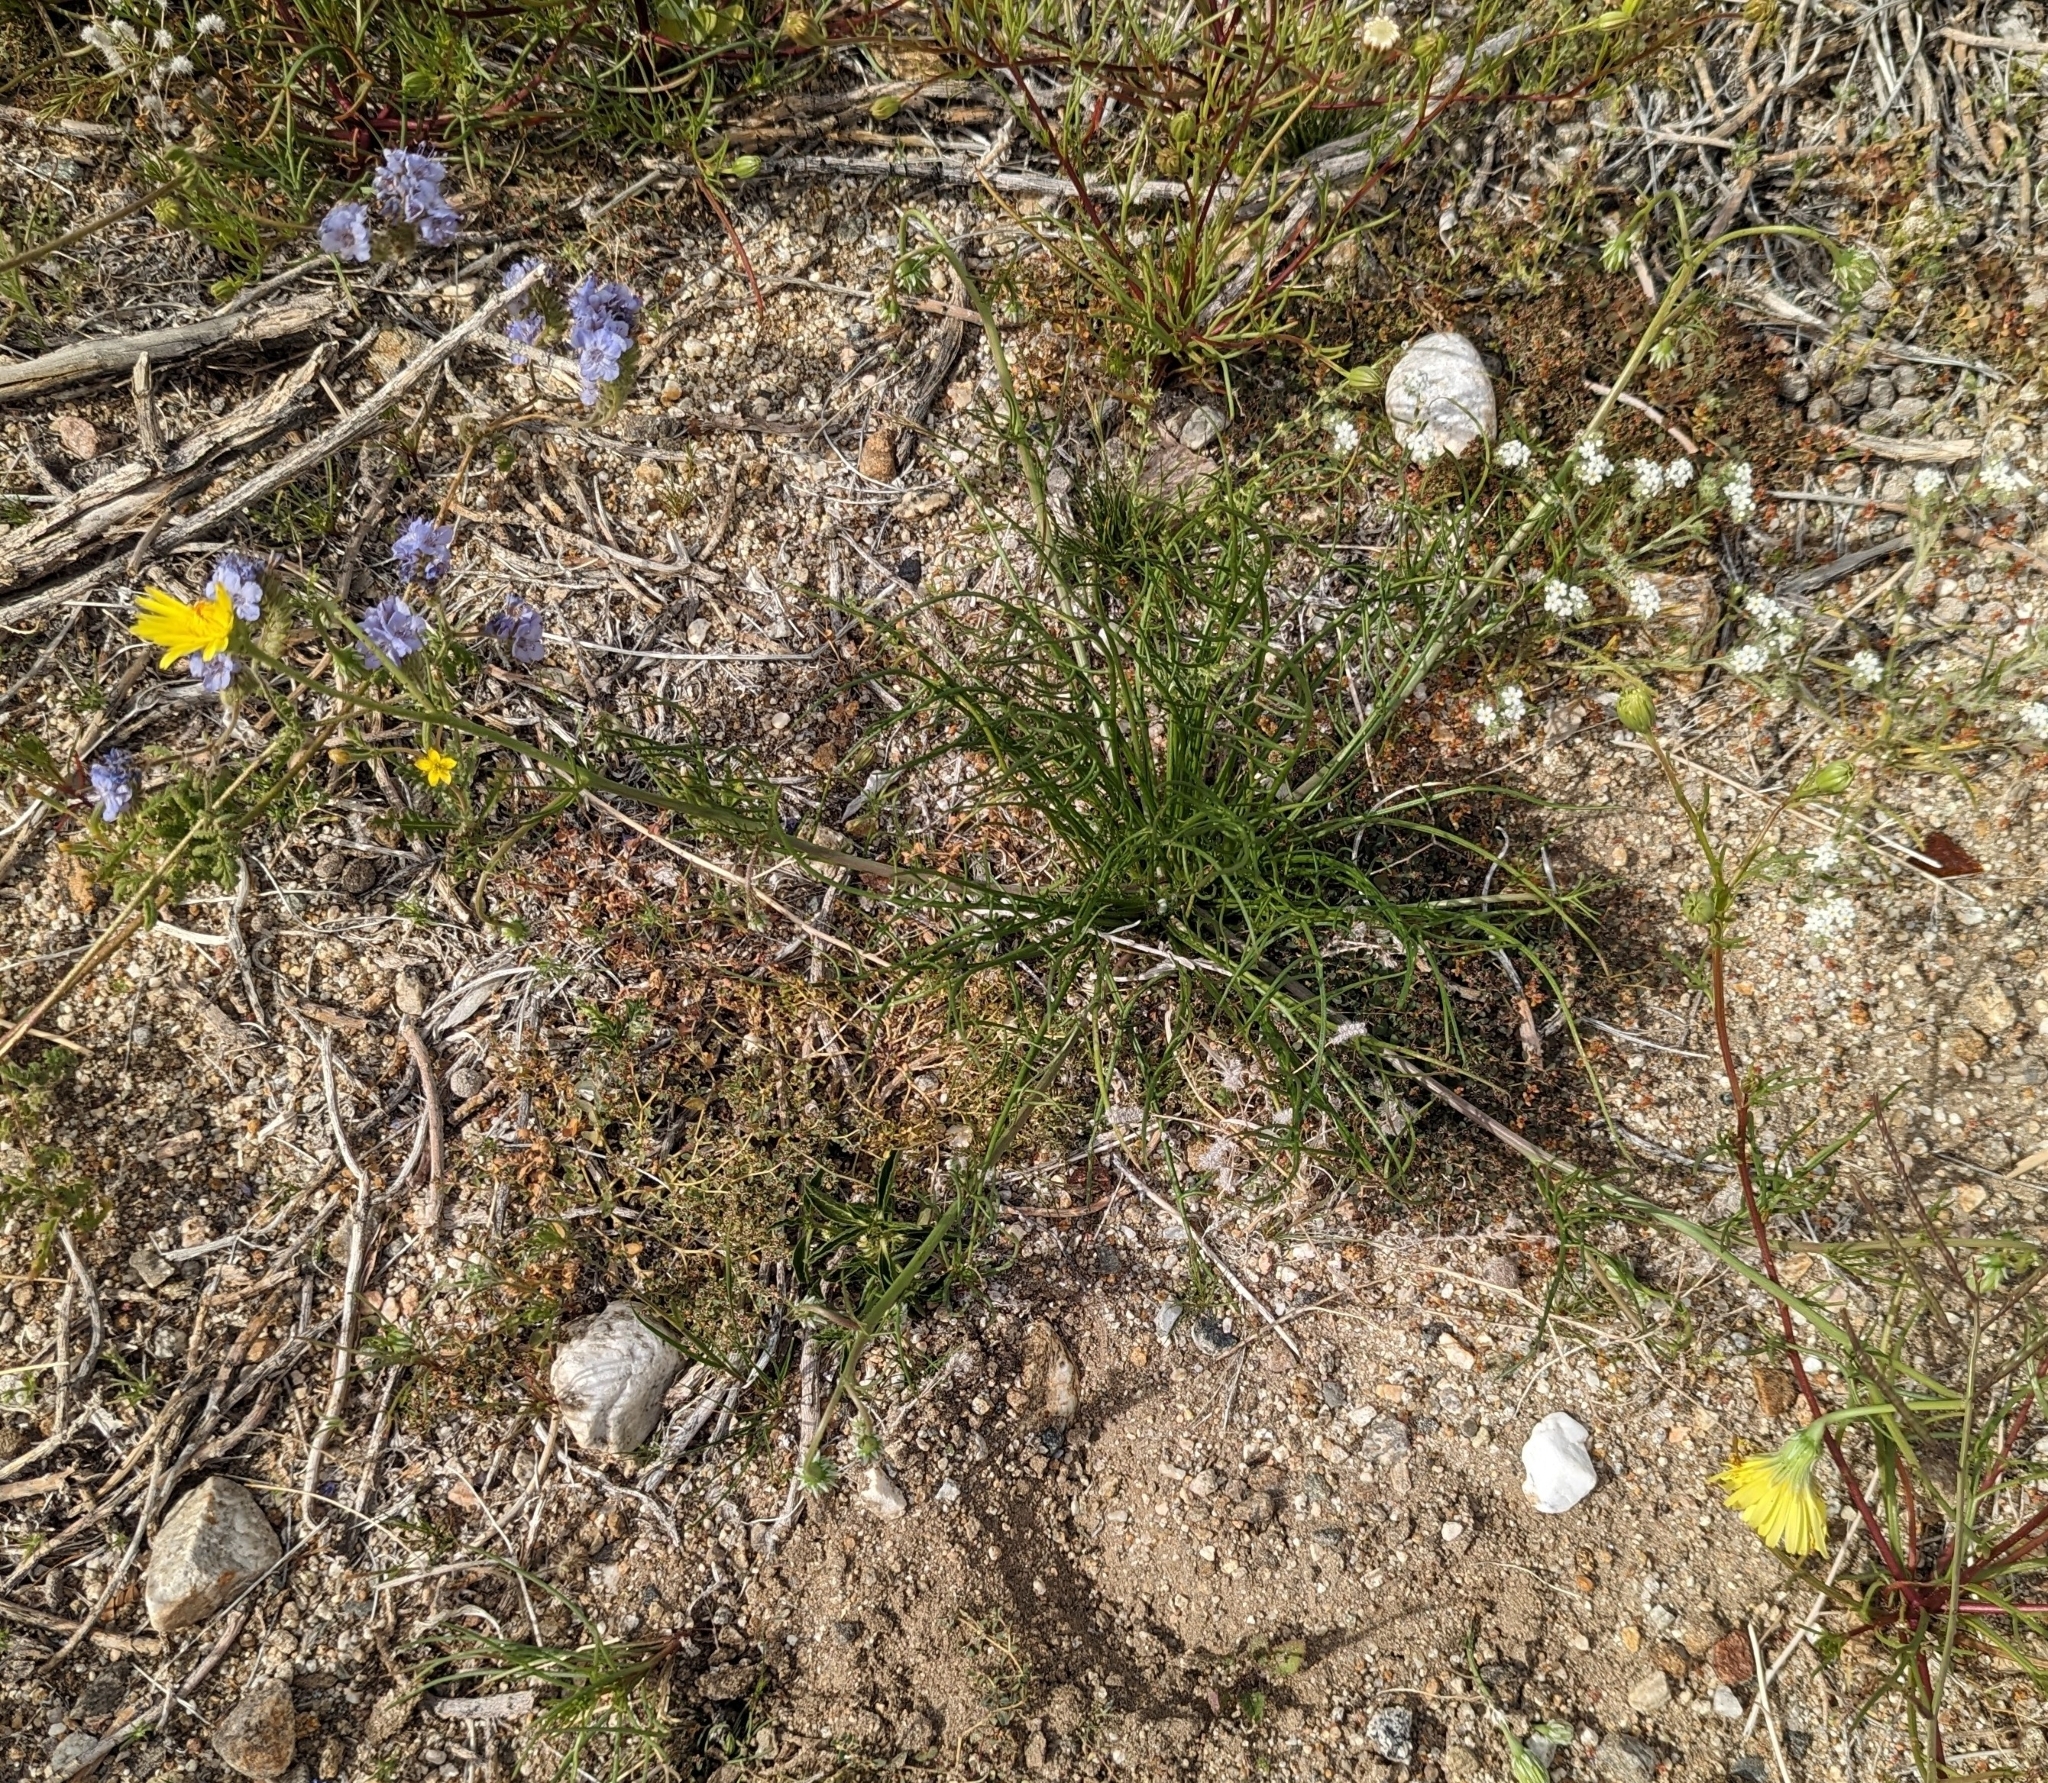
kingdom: Plantae
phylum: Tracheophyta
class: Magnoliopsida
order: Asterales
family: Asteraceae
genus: Malacothrix
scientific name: Malacothrix glabrata
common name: Smooth desert-dandelion
